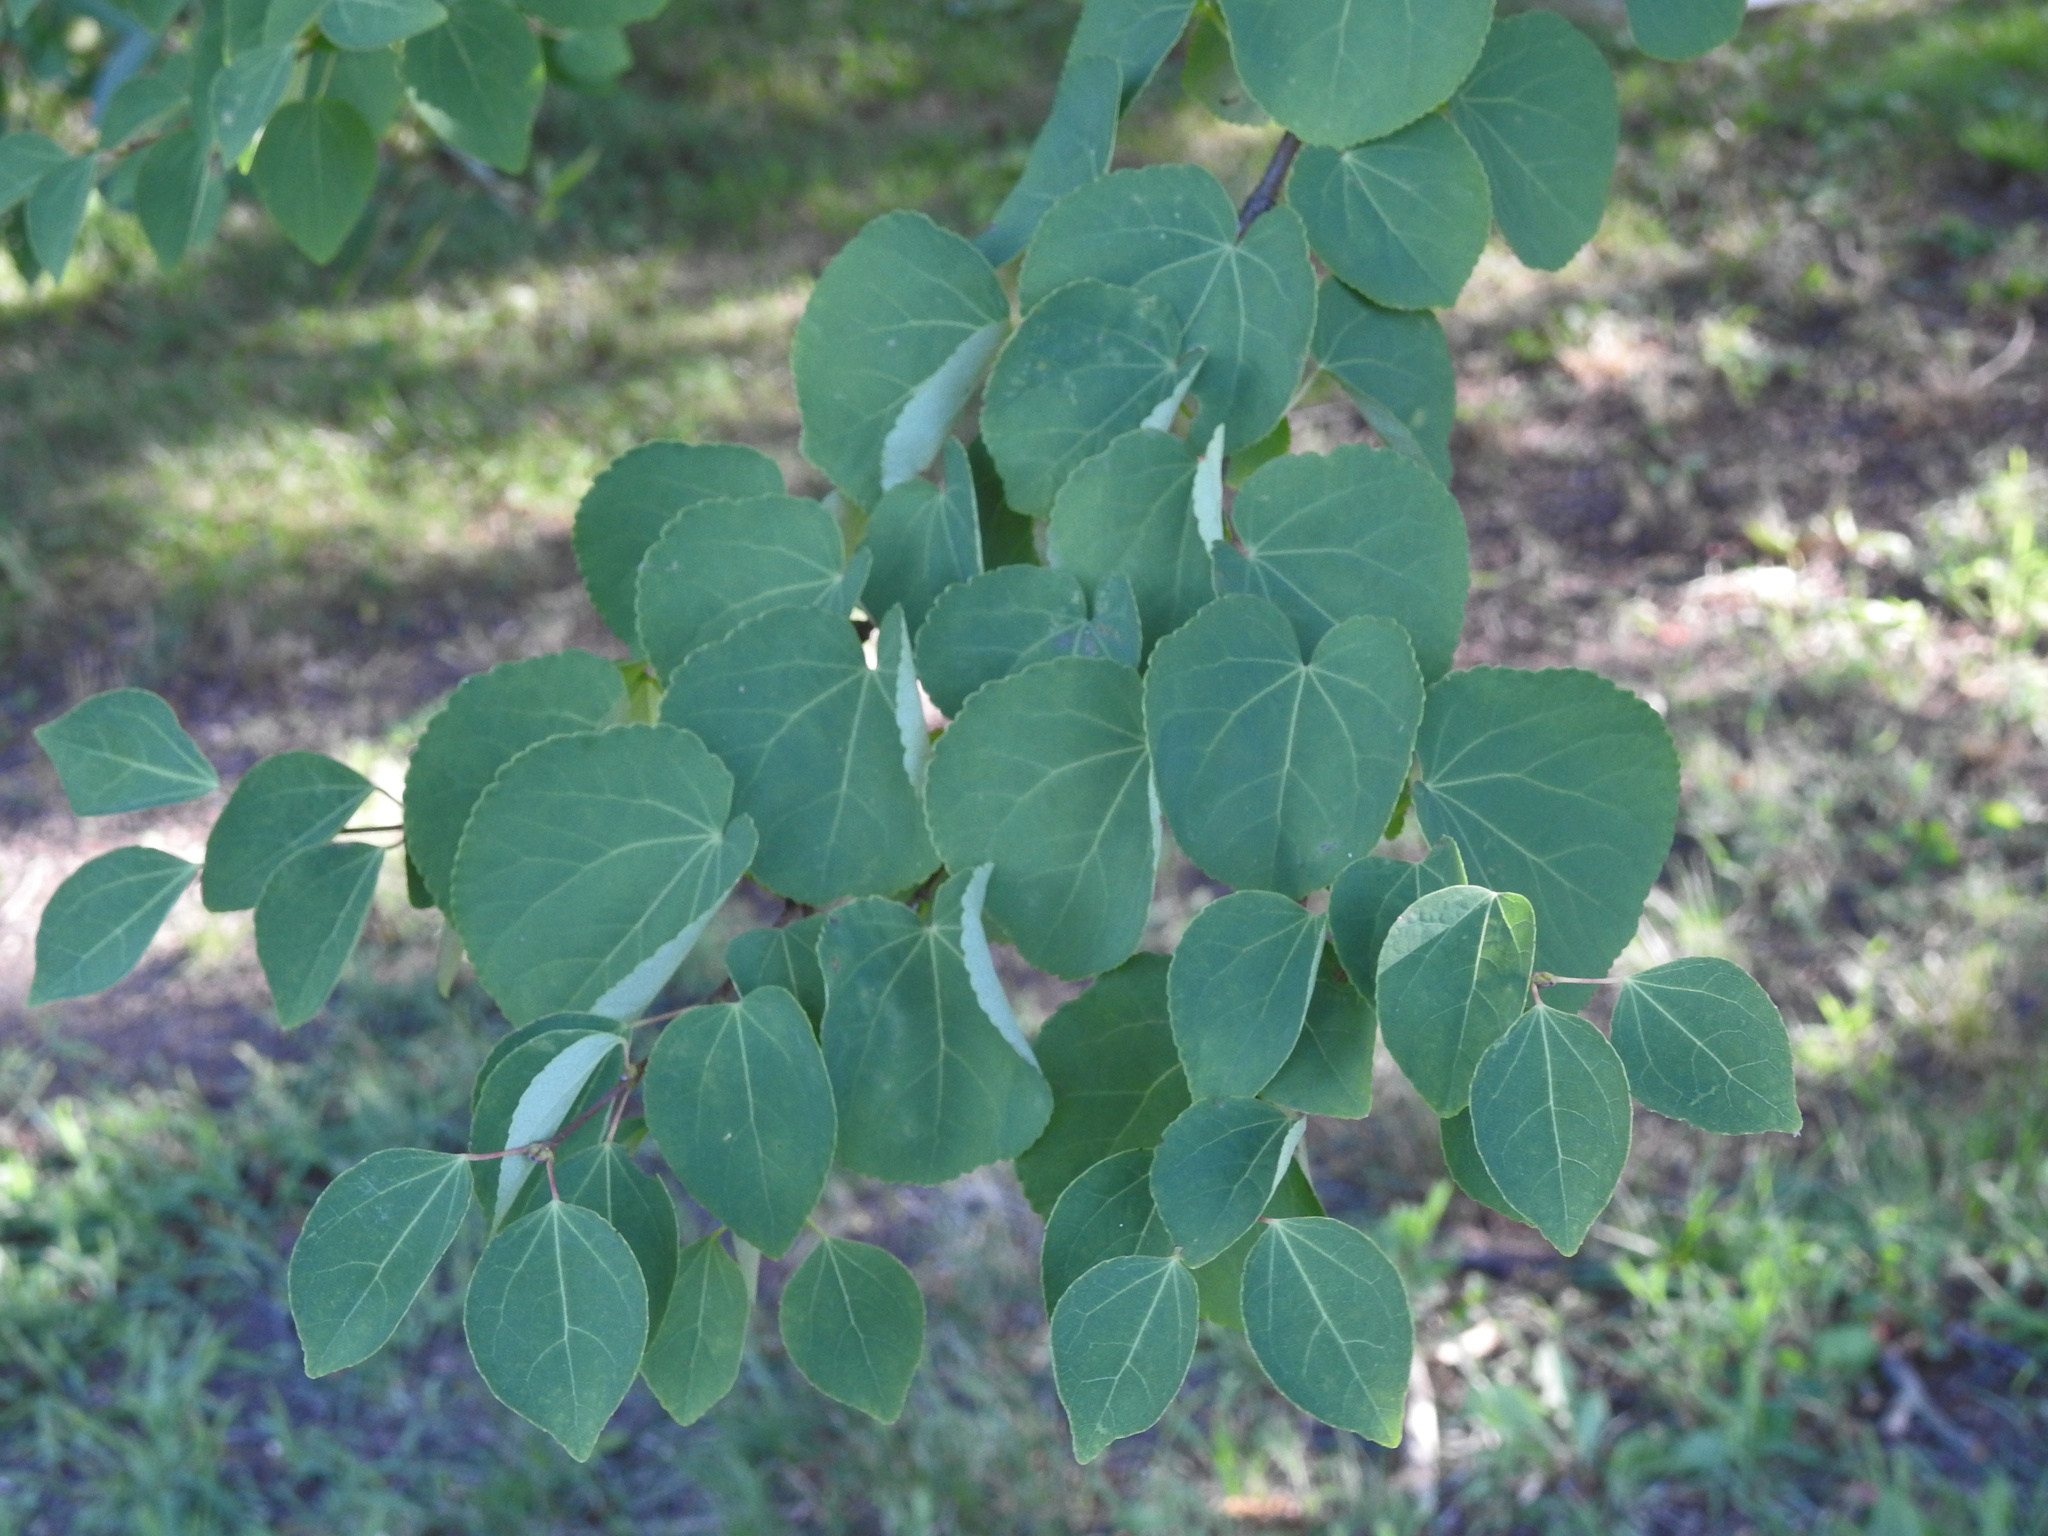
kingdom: Plantae
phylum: Tracheophyta
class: Magnoliopsida
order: Saxifragales
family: Cercidiphyllaceae
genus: Cercidiphyllum
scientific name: Cercidiphyllum japonicum
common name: Katsura tree
